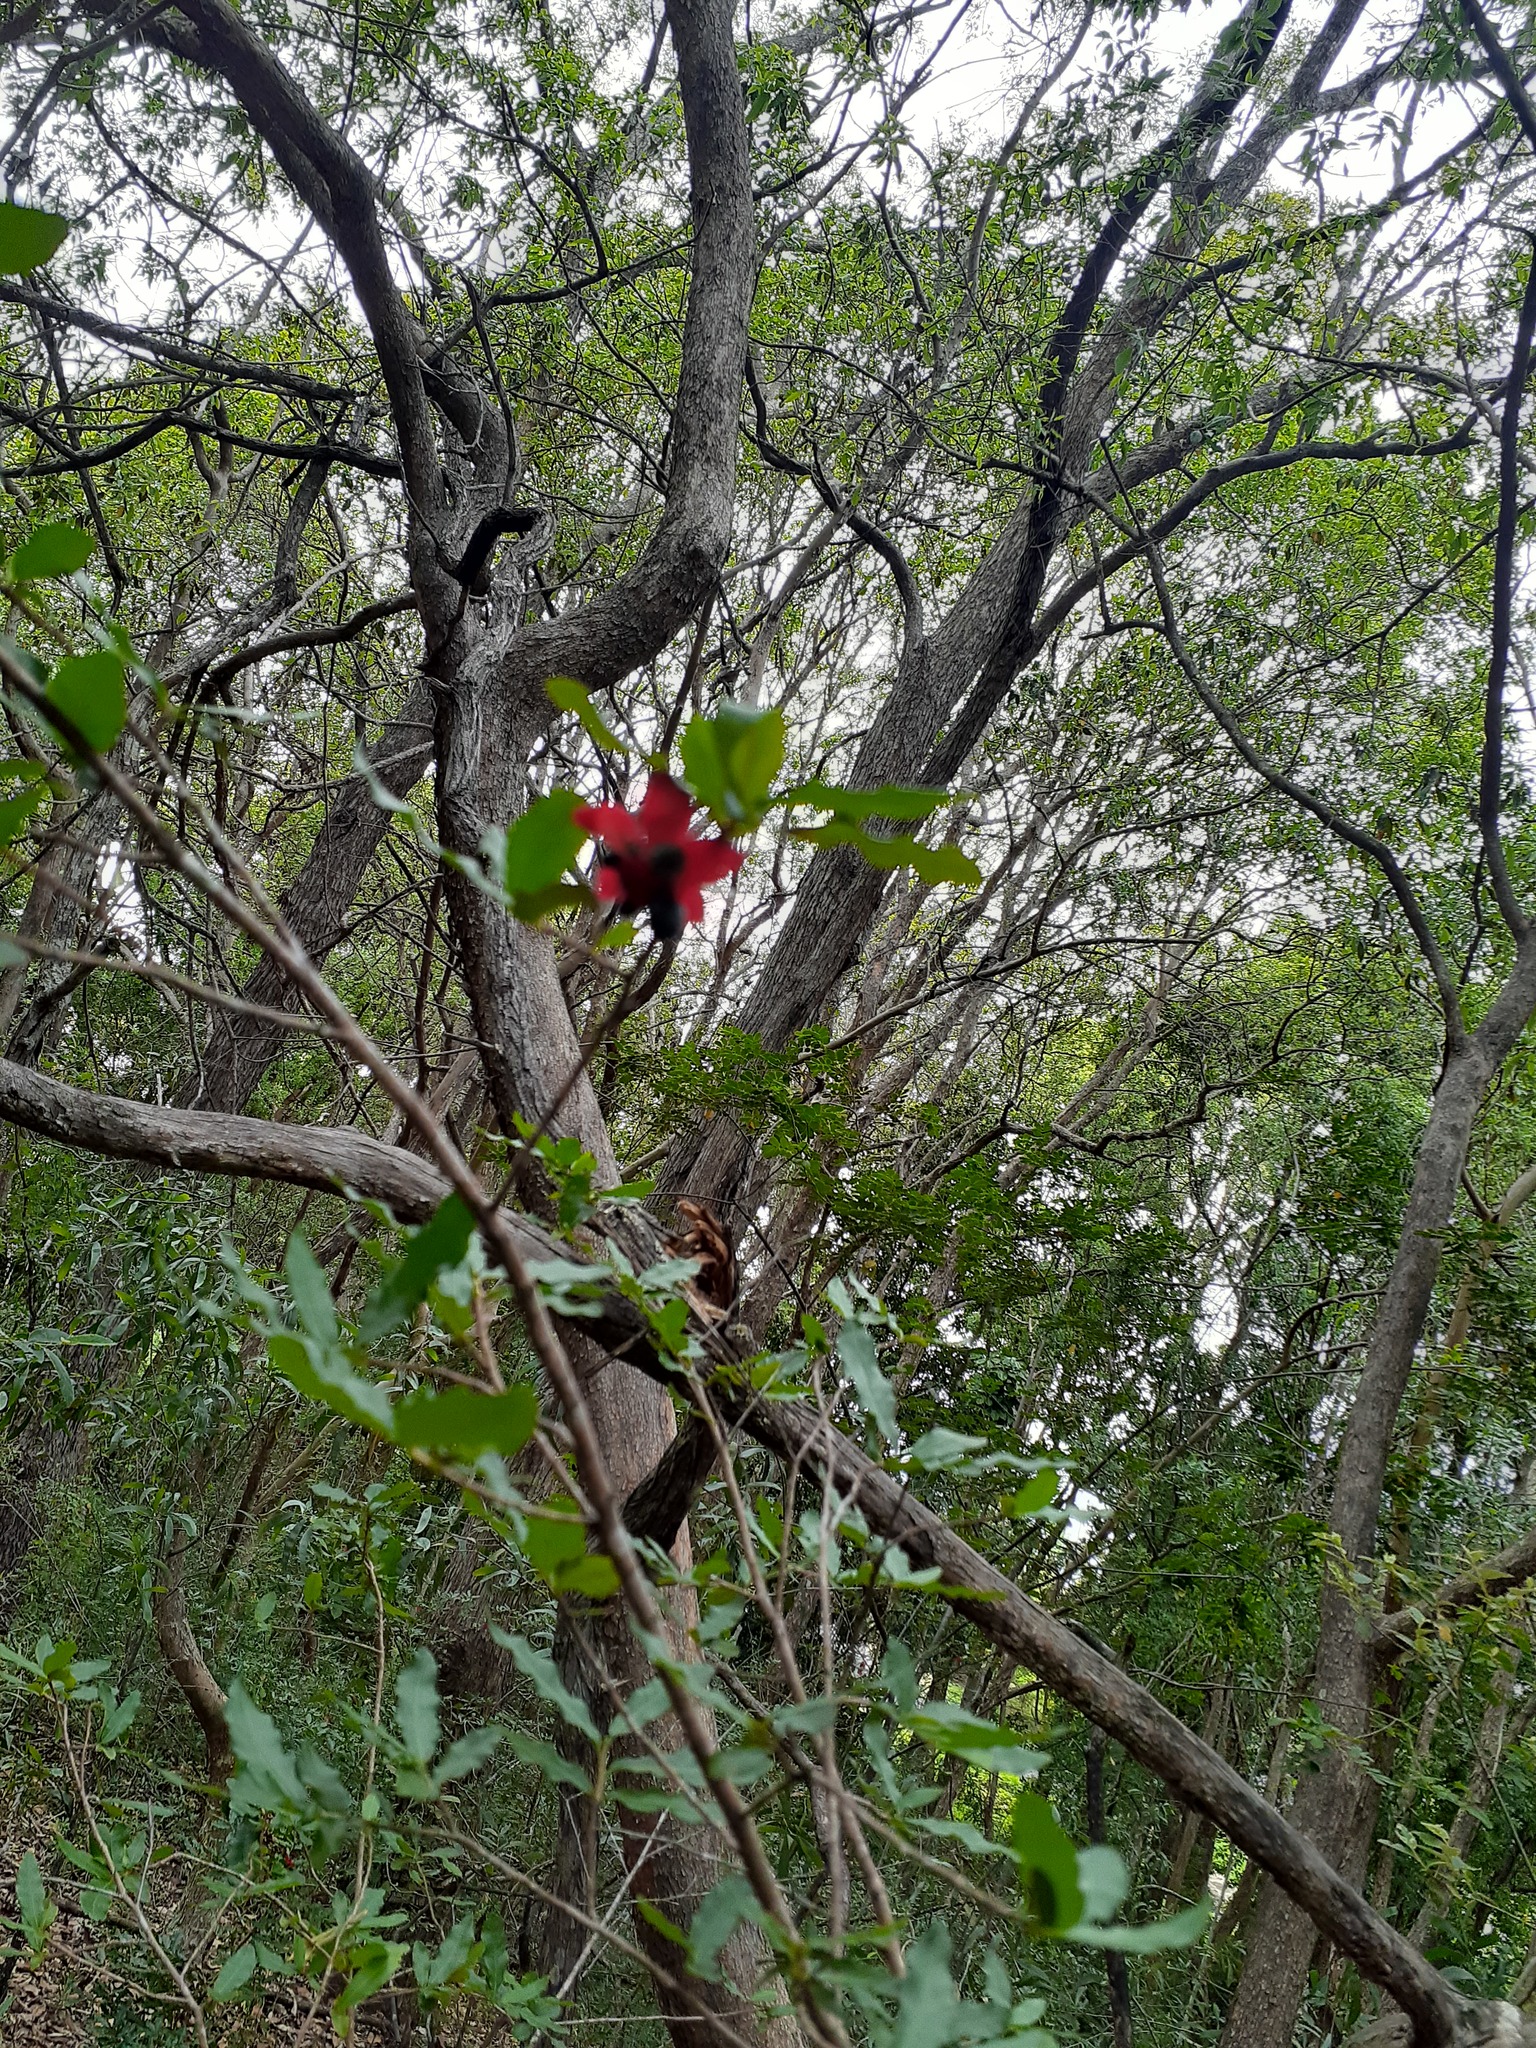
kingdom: Plantae
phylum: Tracheophyta
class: Magnoliopsida
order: Malpighiales
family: Ochnaceae
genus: Ochna
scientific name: Ochna serrulata
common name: Mickey mouse plant
